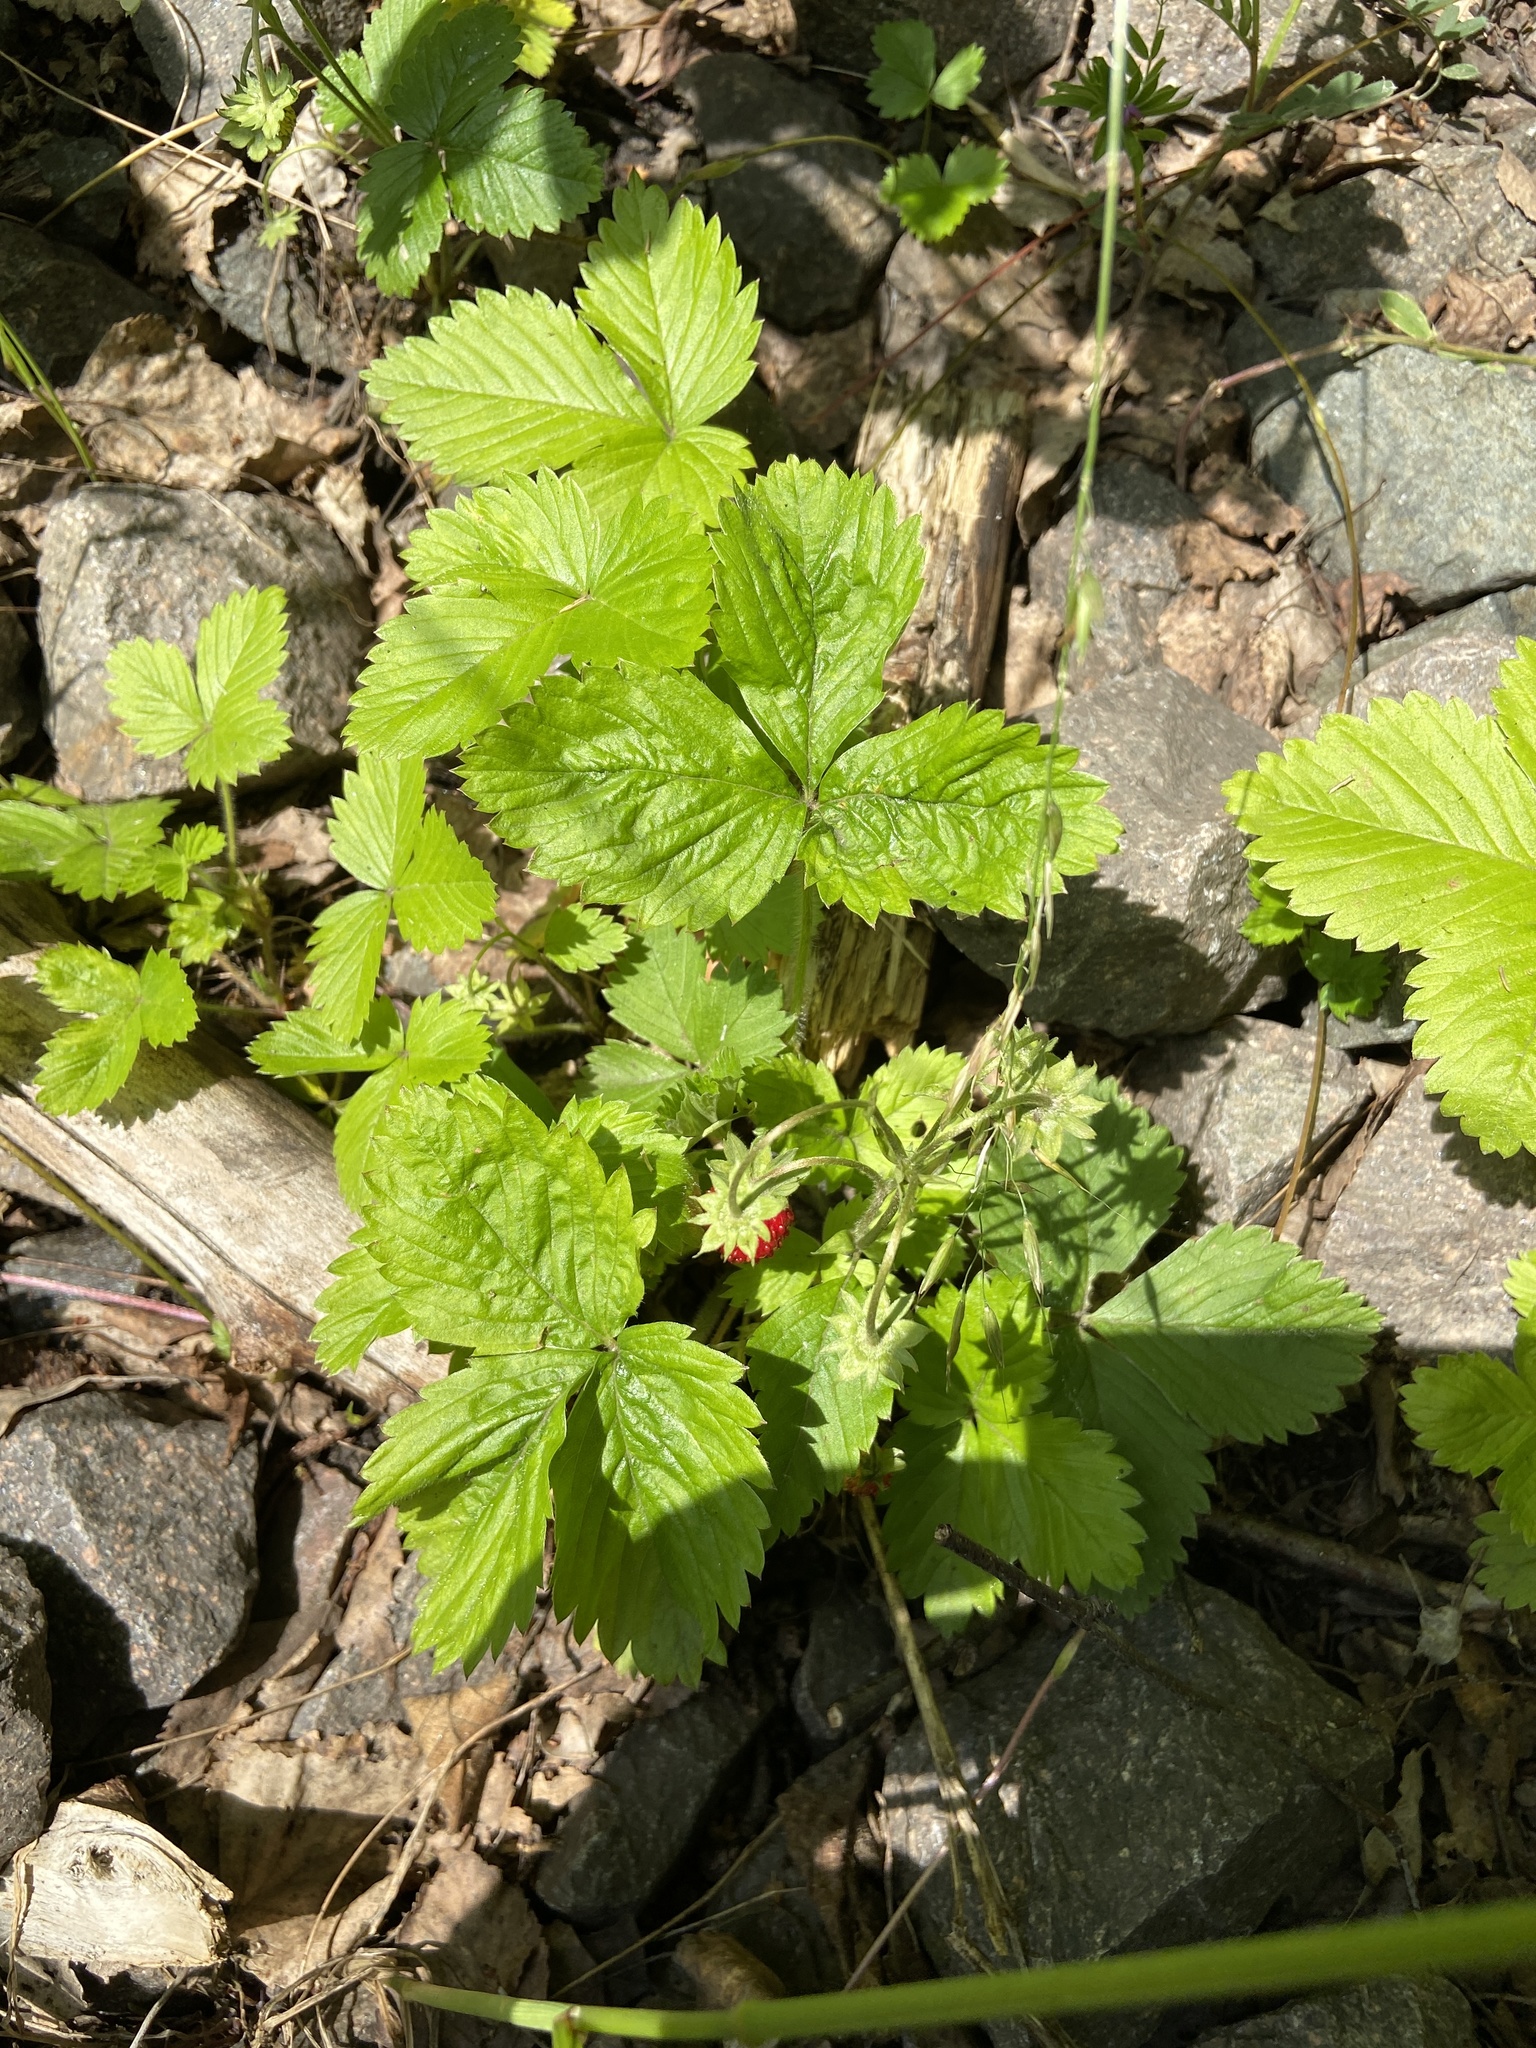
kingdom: Plantae
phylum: Tracheophyta
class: Magnoliopsida
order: Rosales
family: Rosaceae
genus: Fragaria
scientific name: Fragaria vesca
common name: Wild strawberry
